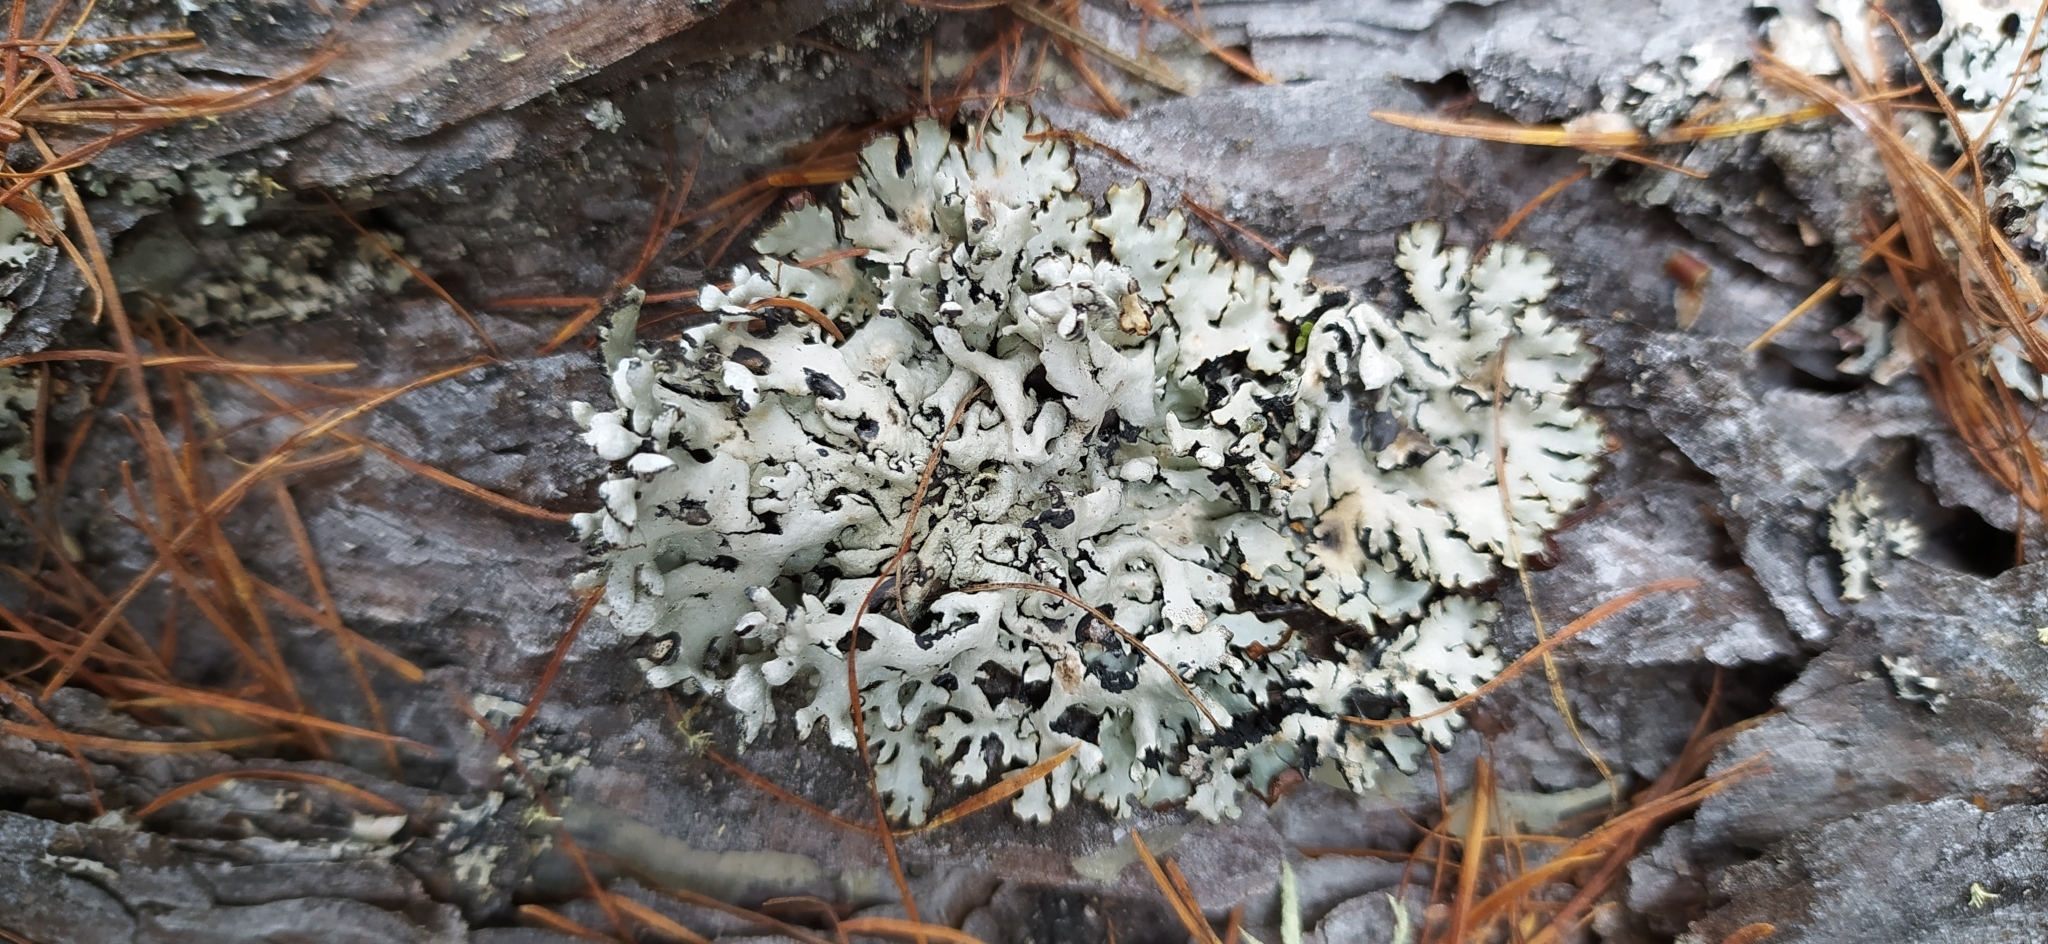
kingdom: Fungi
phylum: Ascomycota
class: Lecanoromycetes
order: Lecanorales
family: Parmeliaceae
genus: Hypogymnia
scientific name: Hypogymnia physodes
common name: Dark crottle
